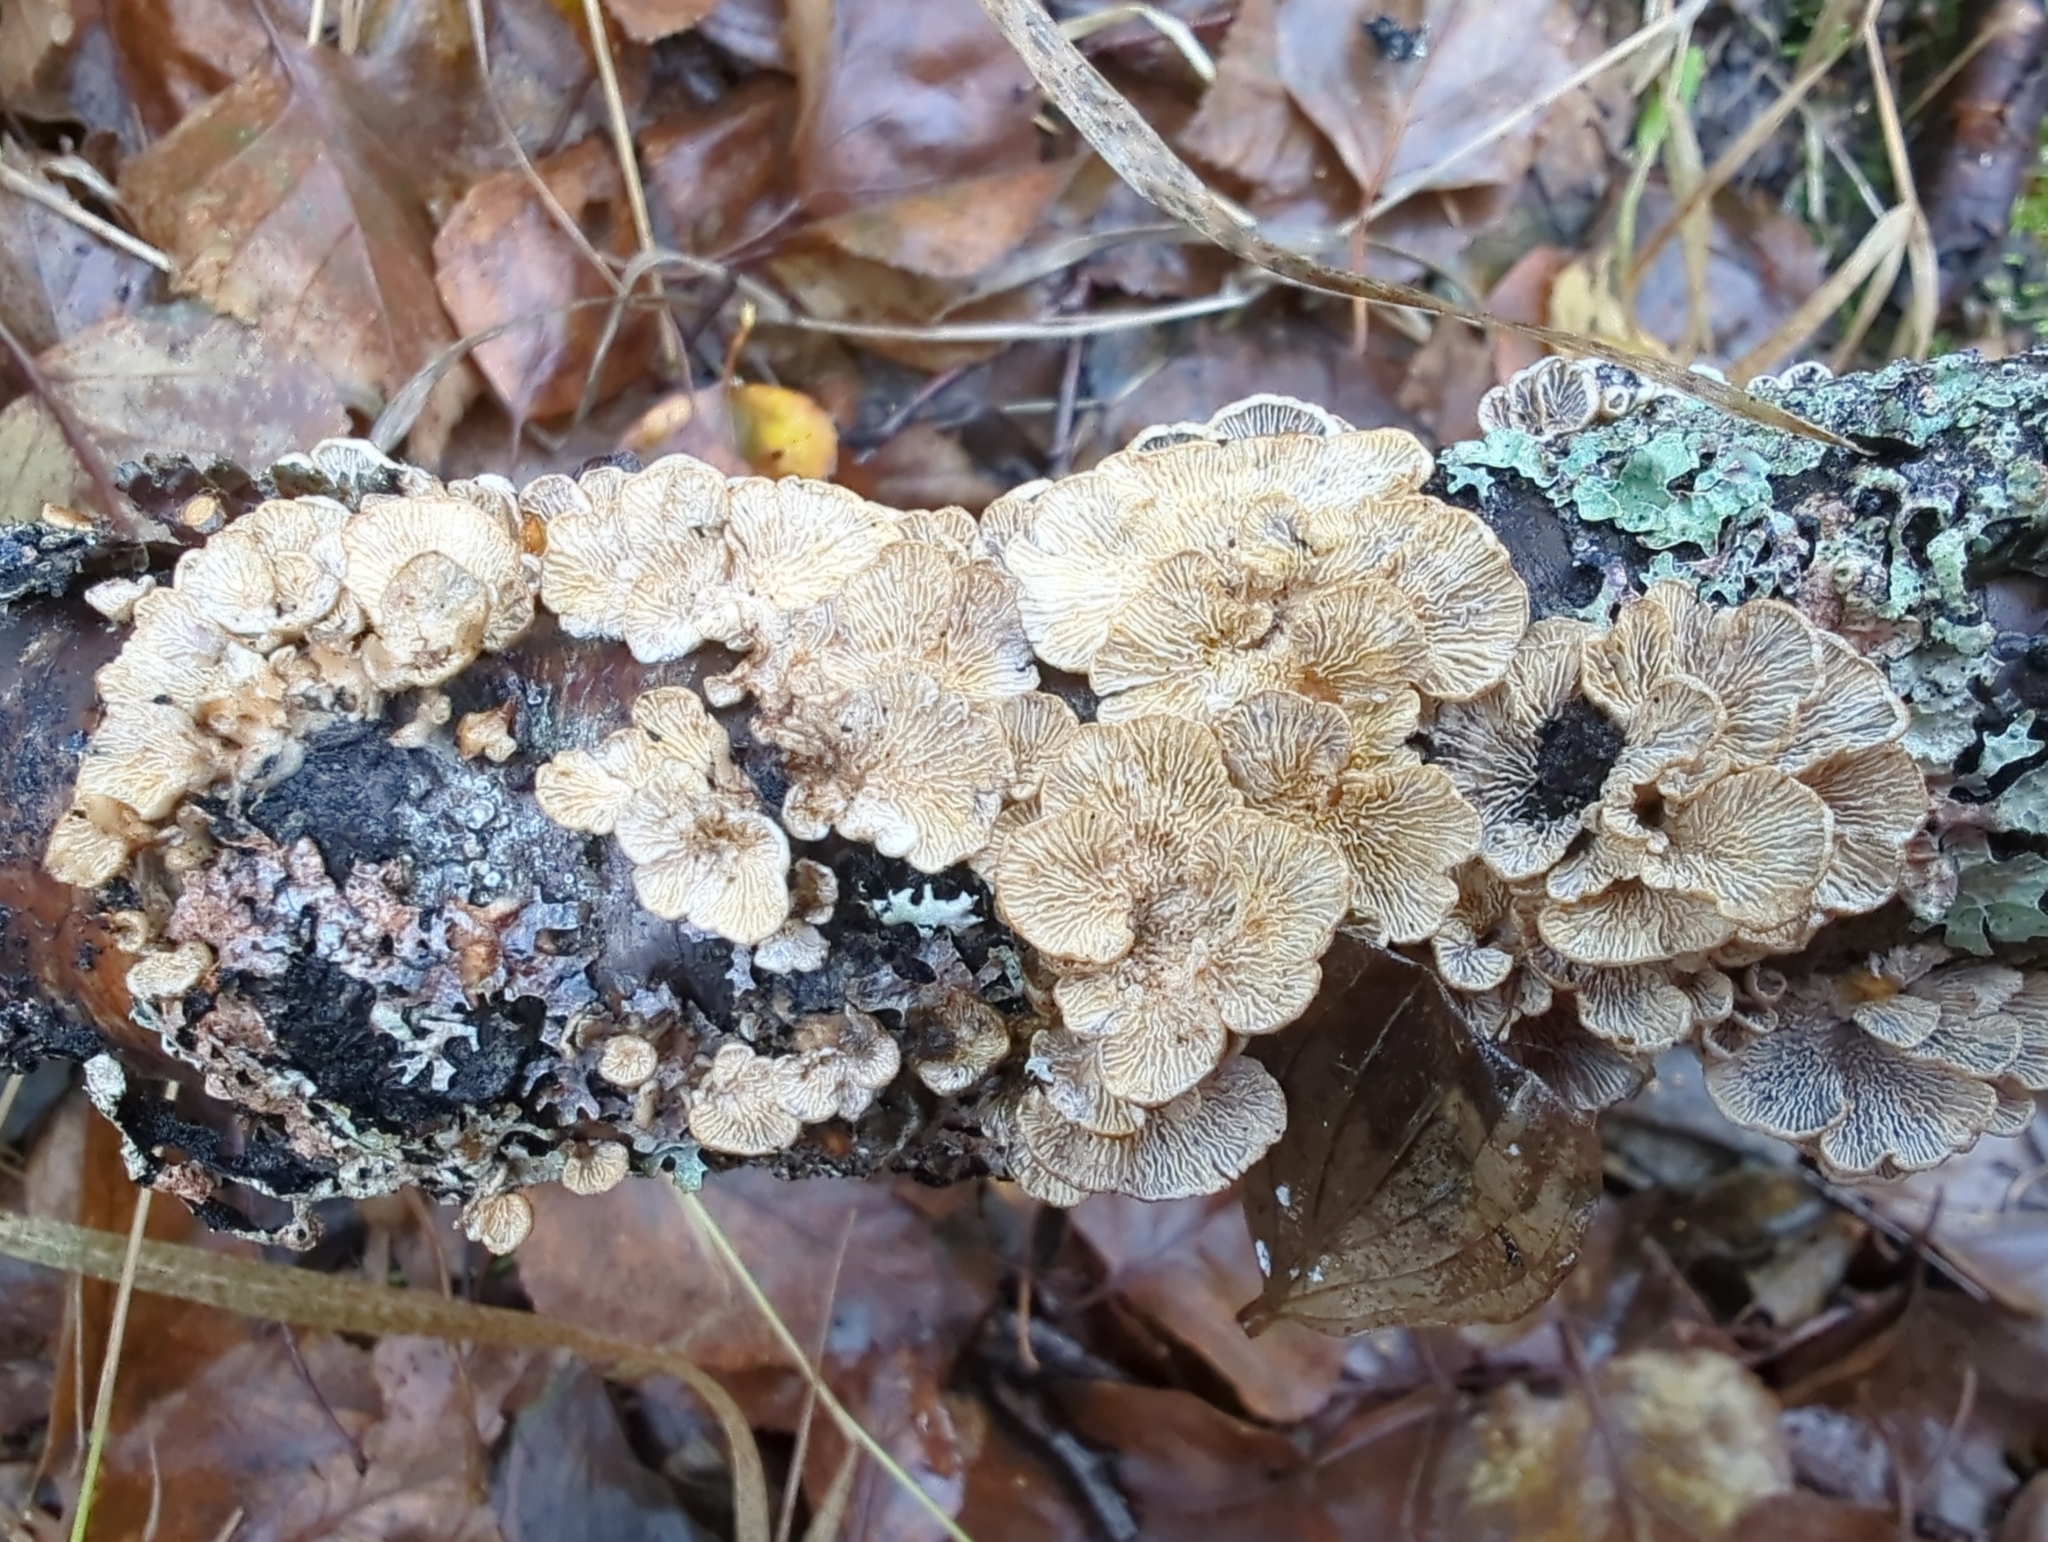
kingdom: Fungi
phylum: Basidiomycota
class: Agaricomycetes
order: Amylocorticiales
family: Amylocorticiaceae
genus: Plicaturopsis
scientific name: Plicaturopsis crispa
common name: Crimped gill
